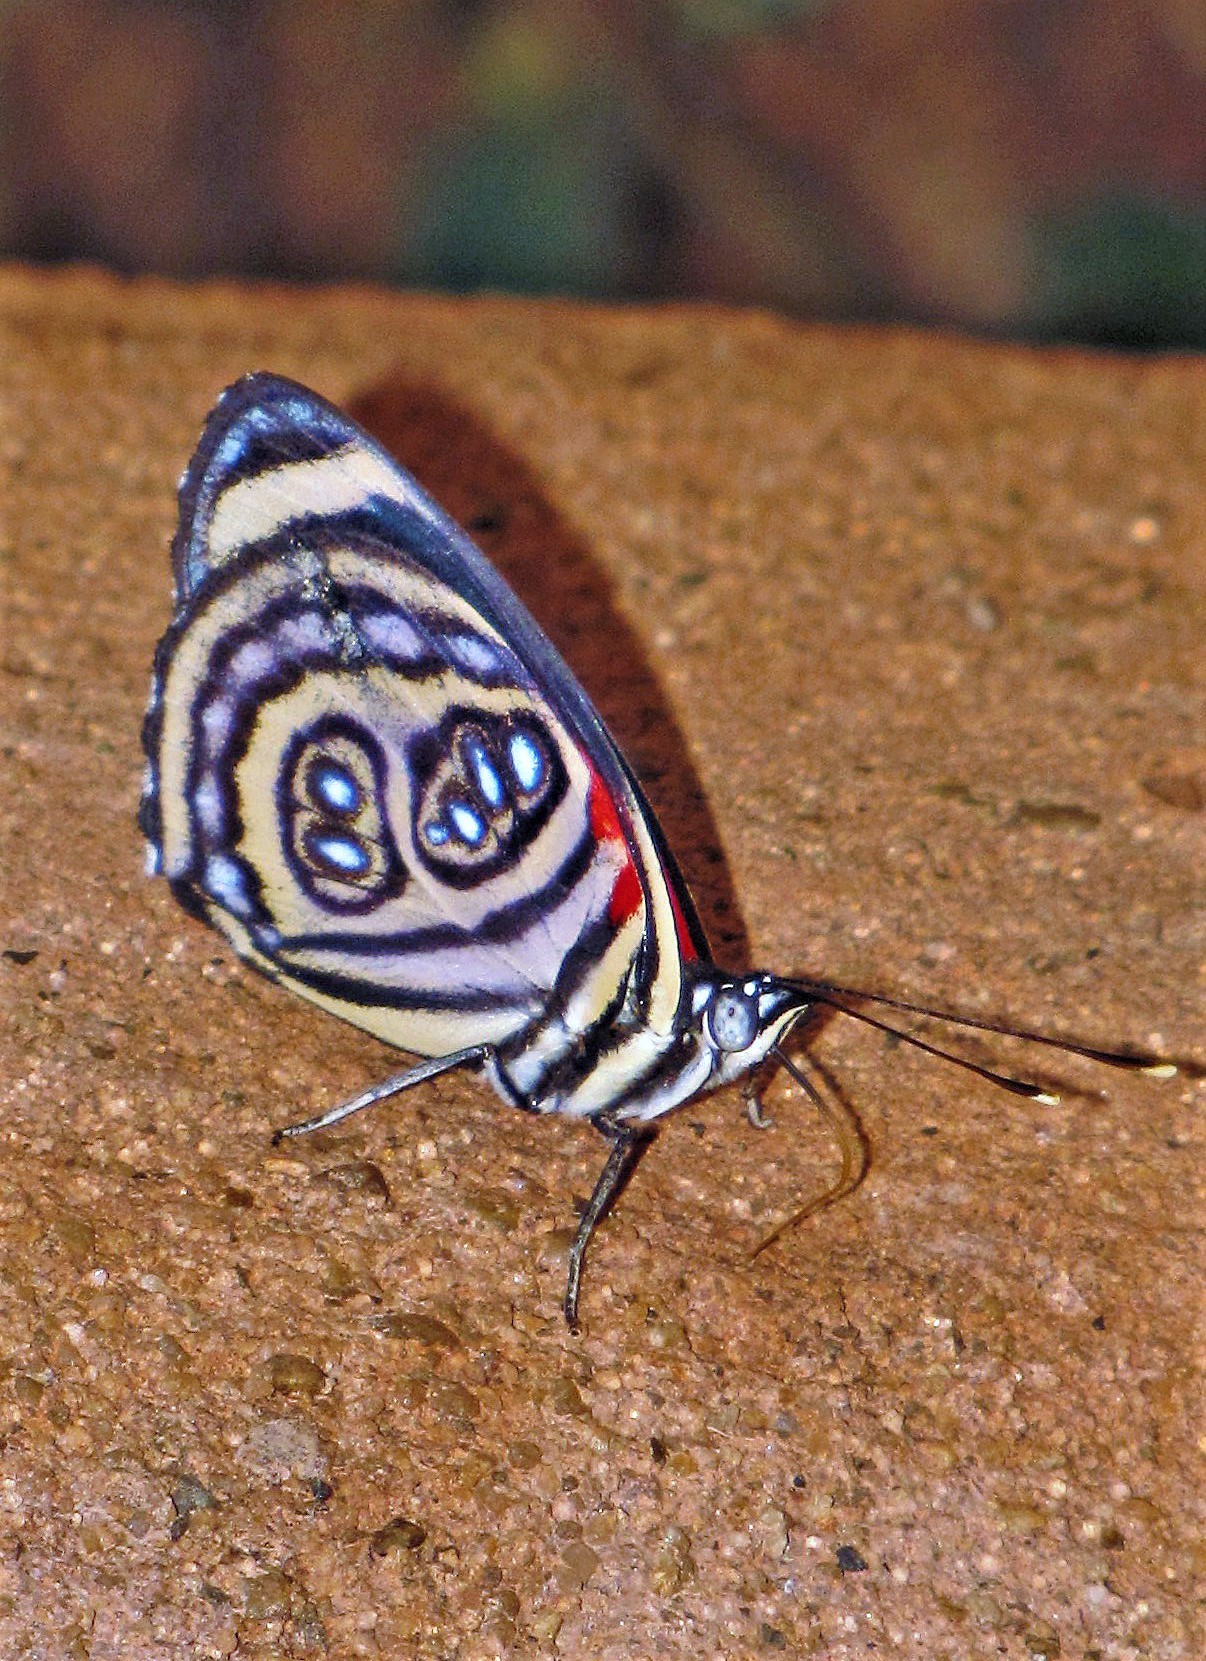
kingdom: Animalia
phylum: Arthropoda
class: Insecta
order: Lepidoptera
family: Nymphalidae
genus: Catagramma
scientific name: Catagramma pygas
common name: Godart's numberwing
